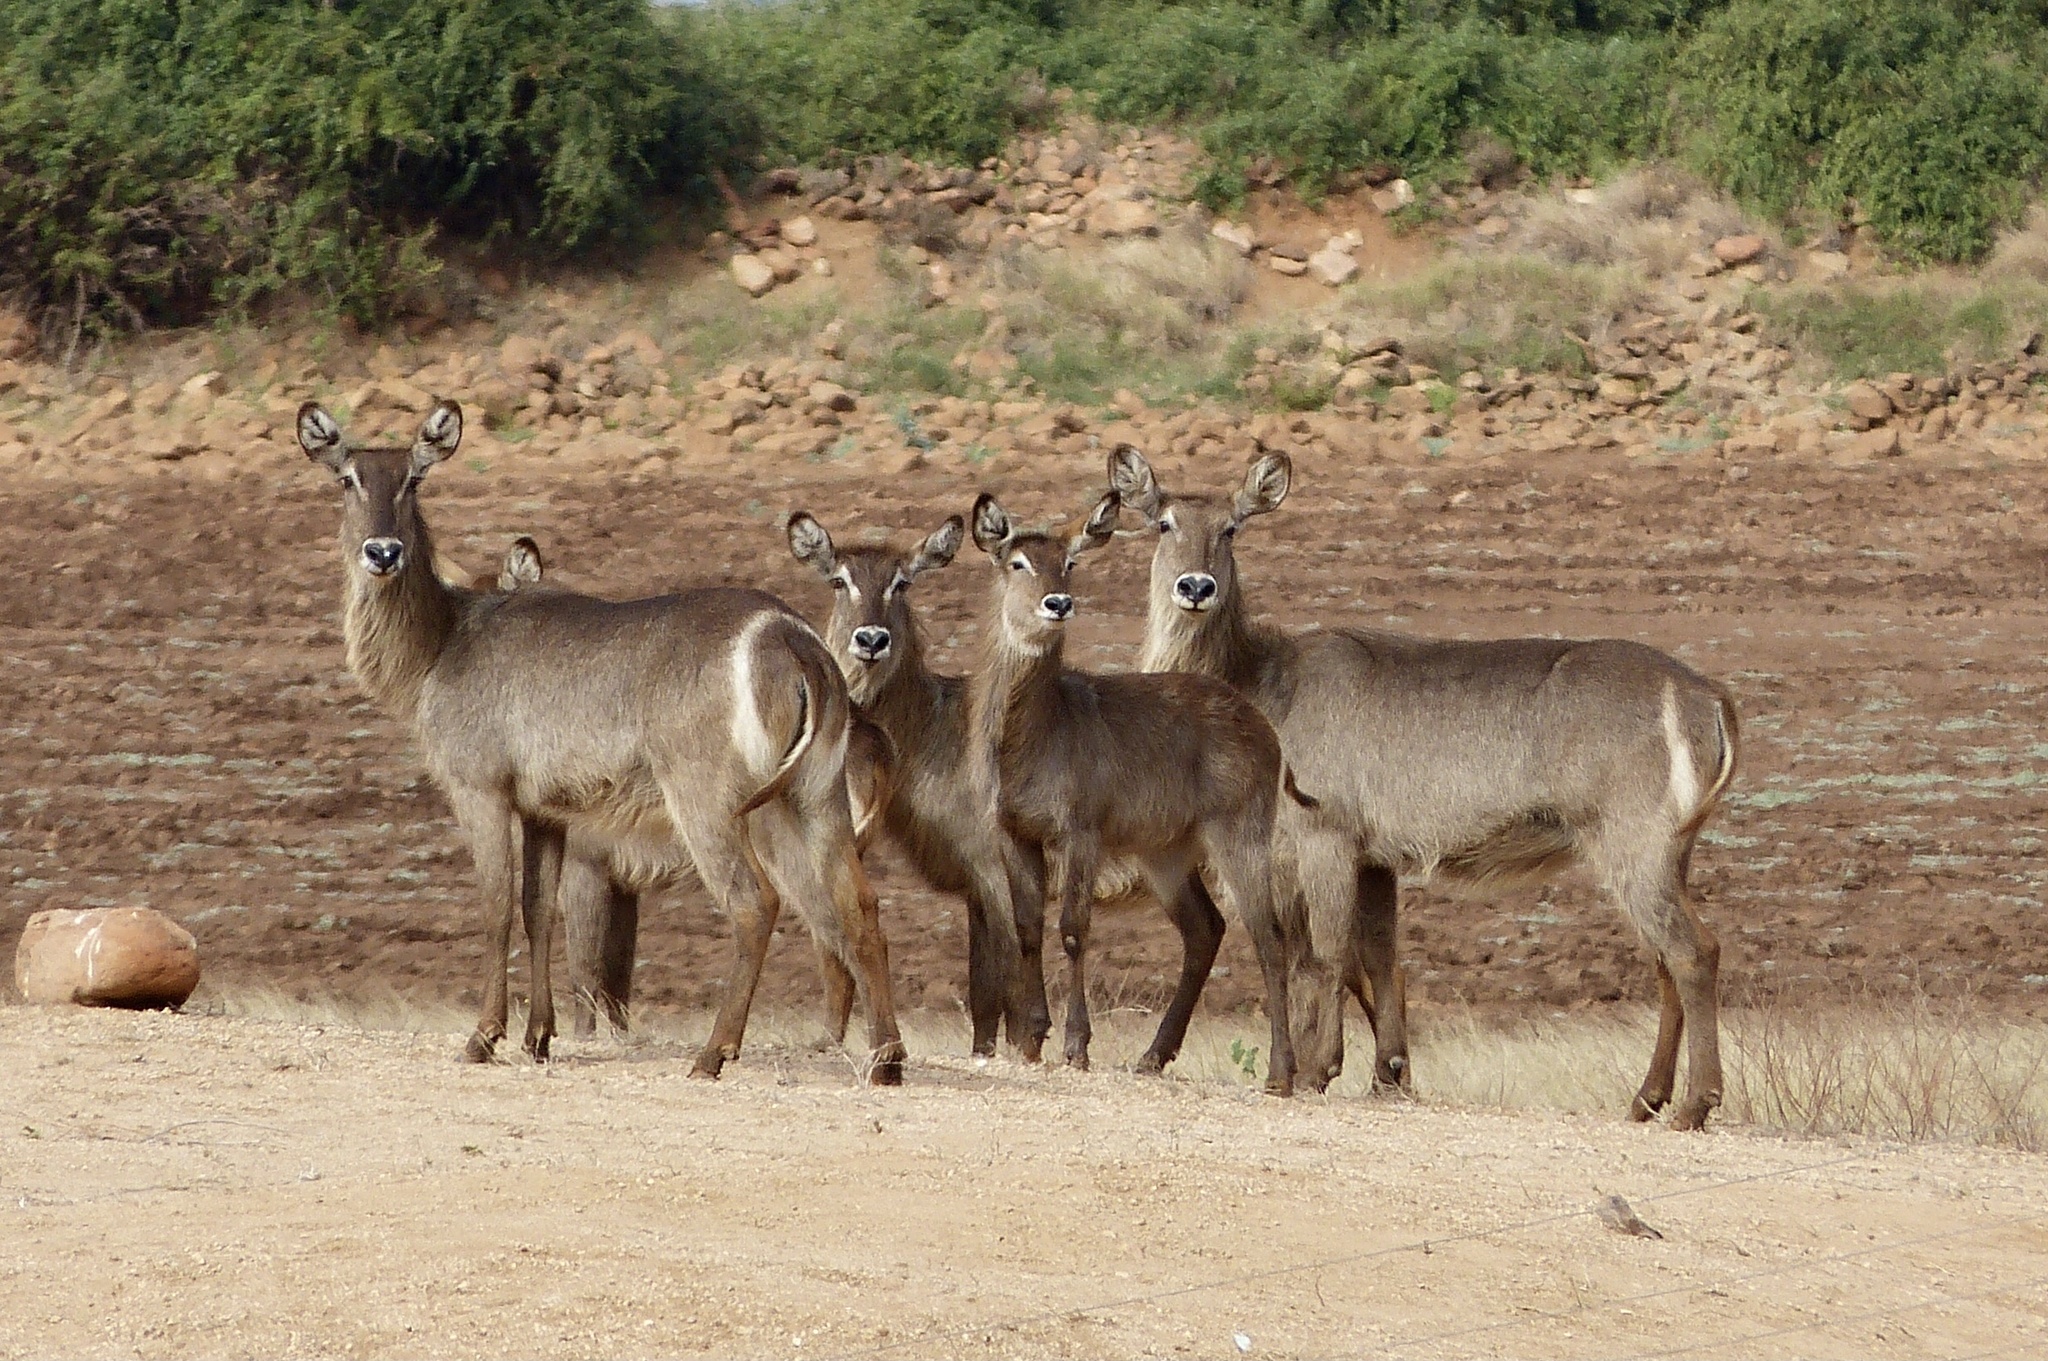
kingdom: Animalia
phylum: Chordata
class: Mammalia
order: Artiodactyla
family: Bovidae
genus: Kobus
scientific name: Kobus ellipsiprymnus
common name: Waterbuck
